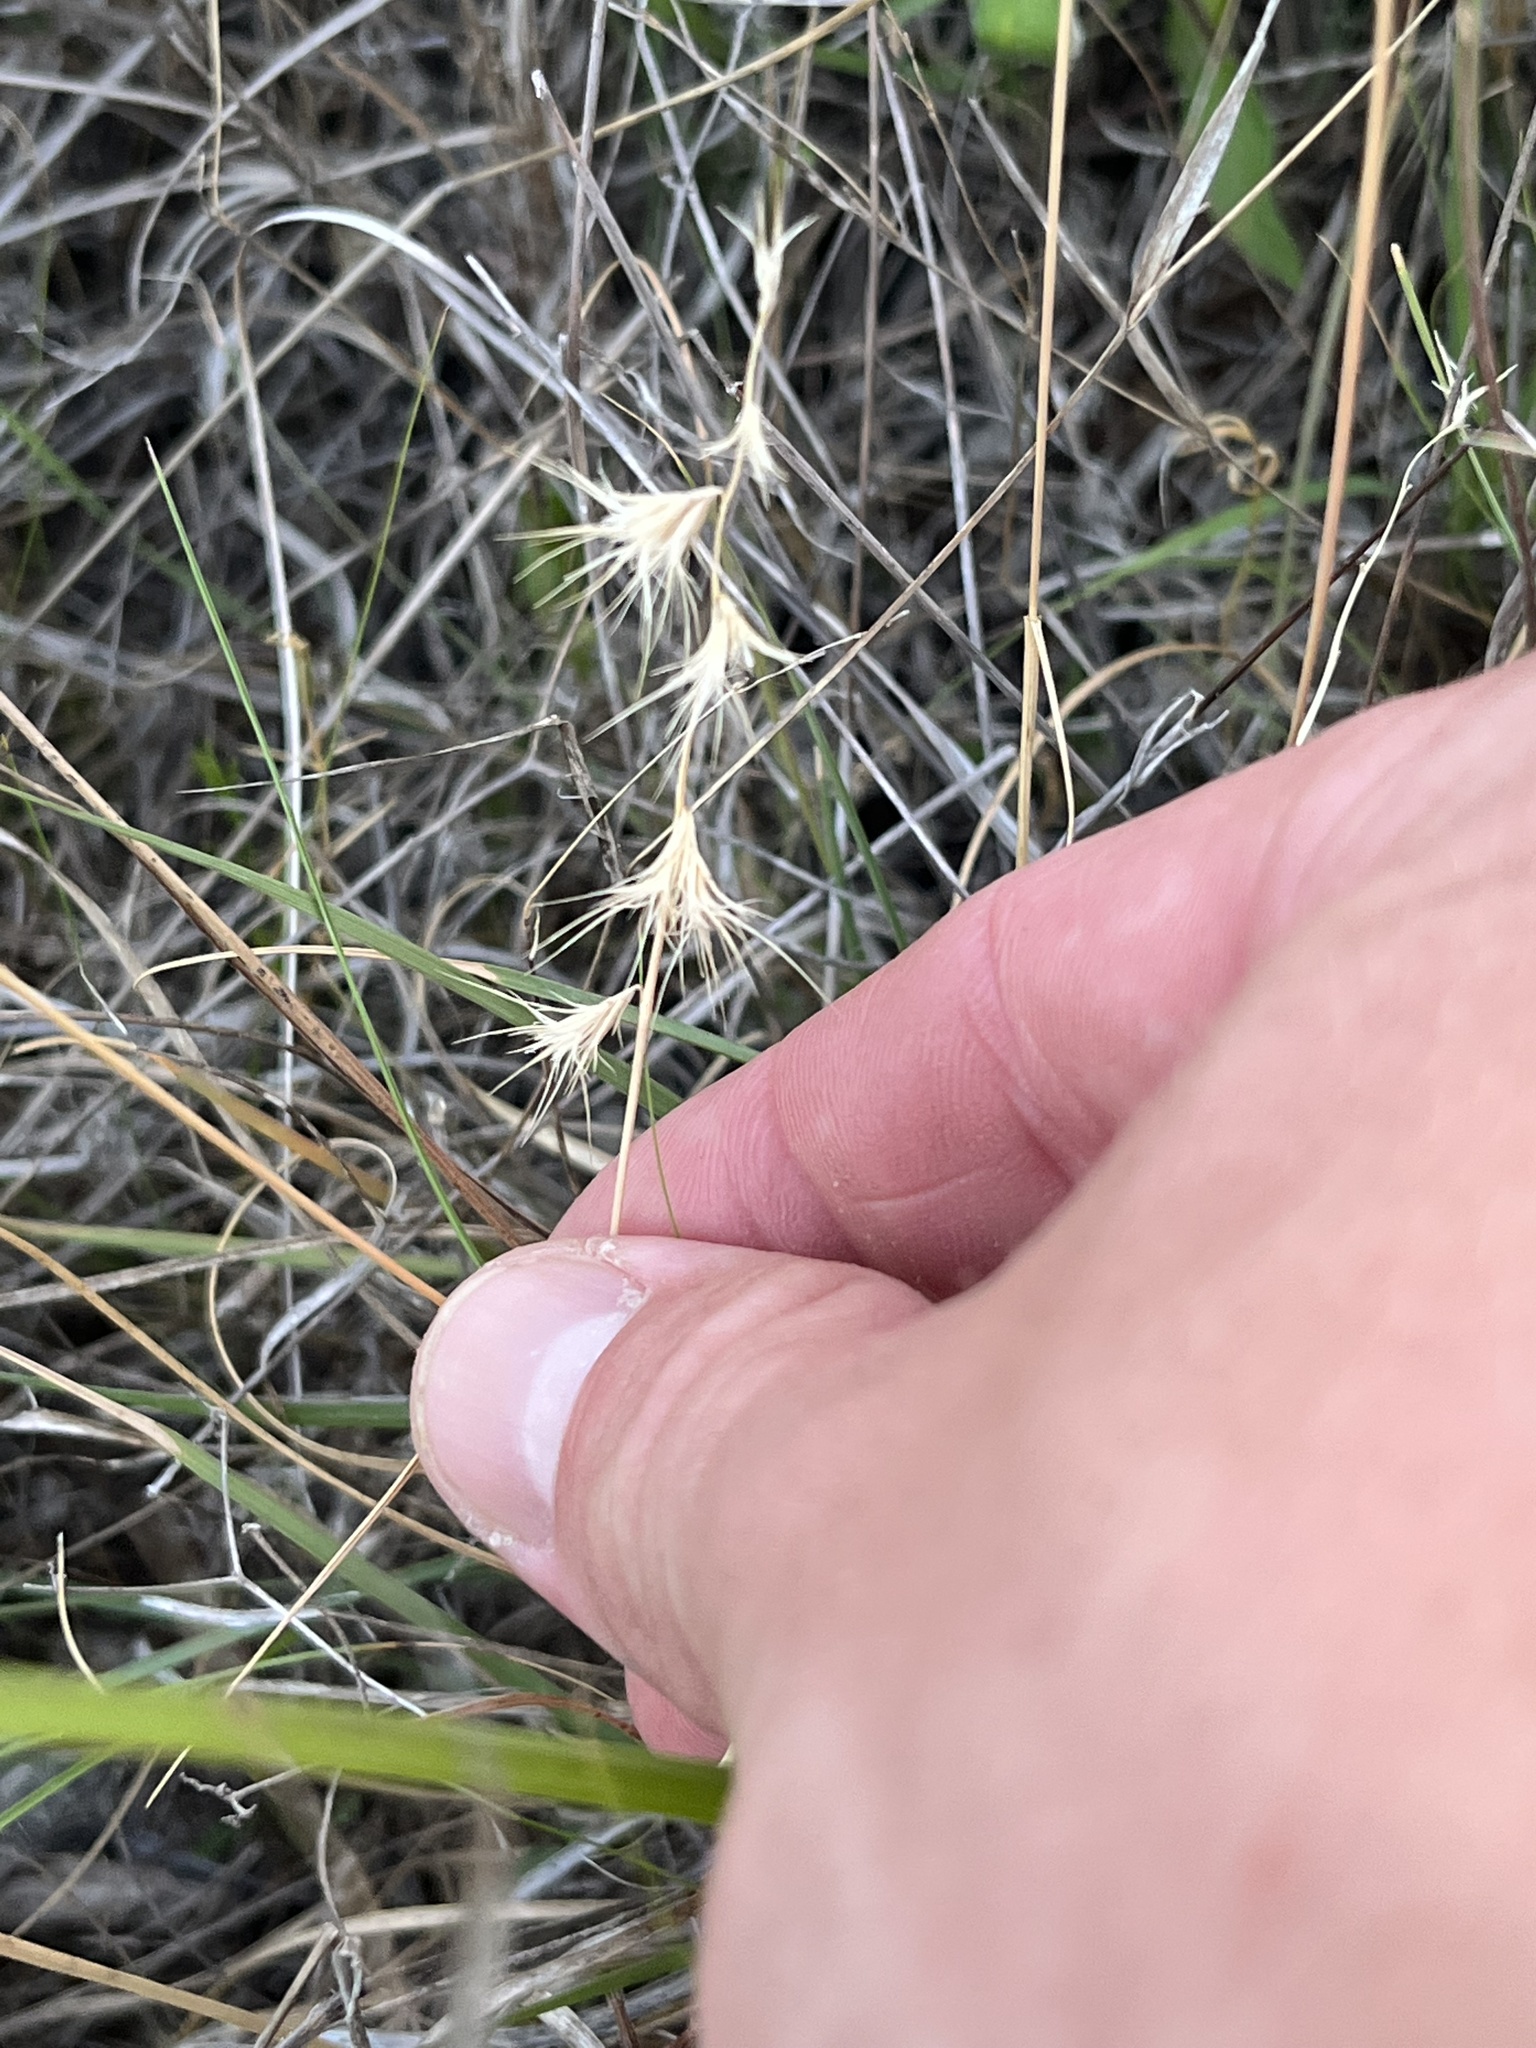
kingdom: Plantae
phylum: Tracheophyta
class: Liliopsida
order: Poales
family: Poaceae
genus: Bouteloua
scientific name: Bouteloua rigidiseta
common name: Texas grama
